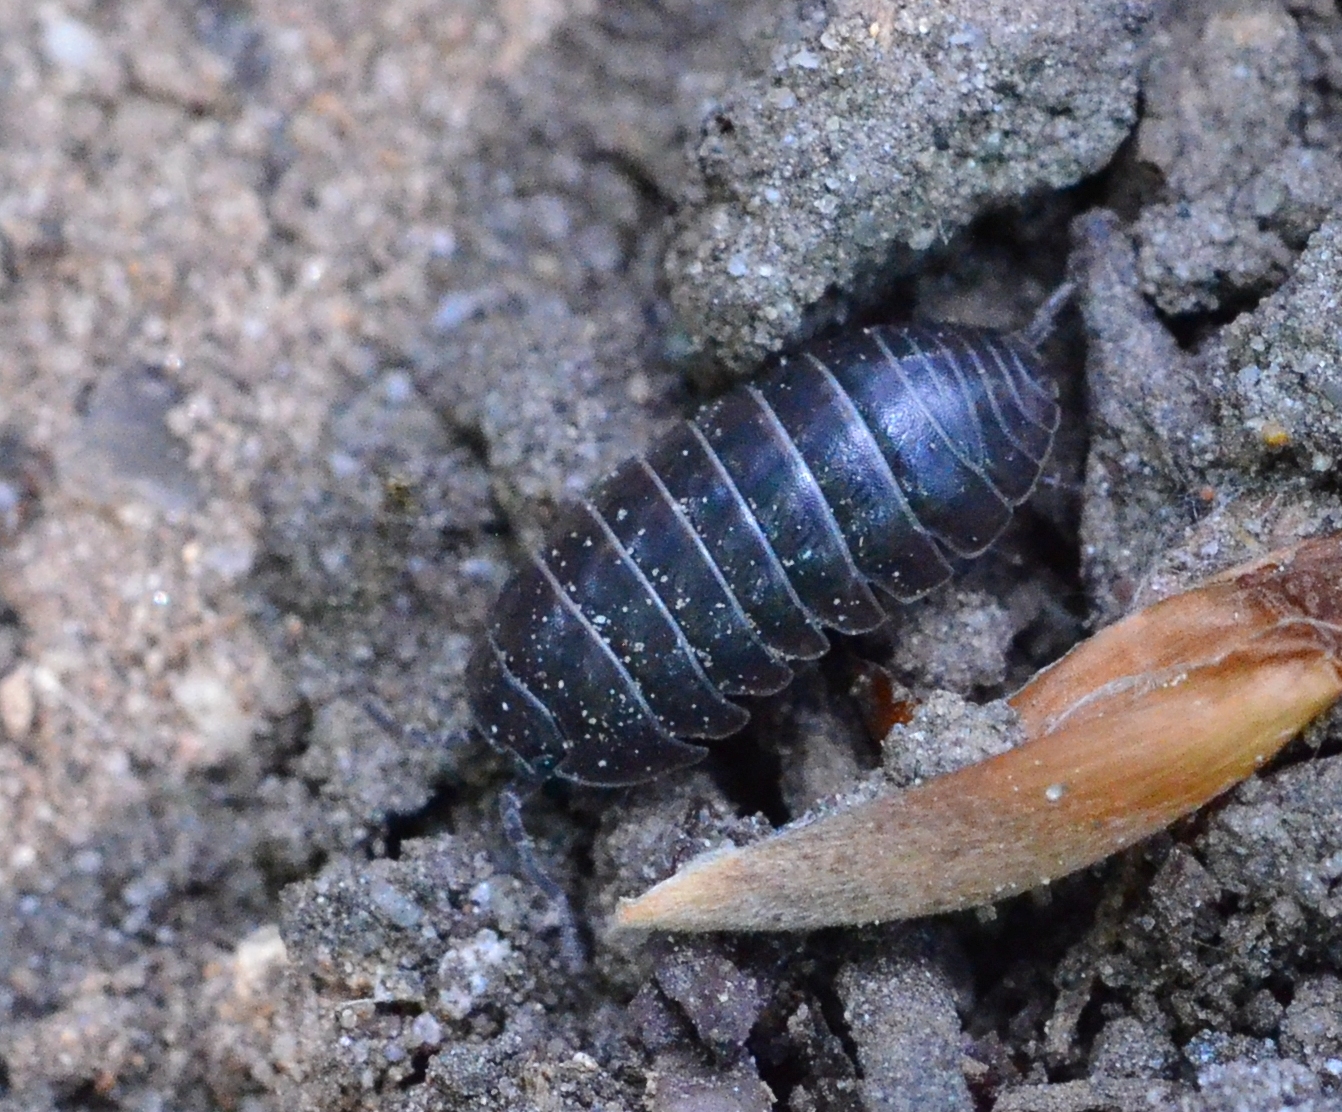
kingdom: Animalia
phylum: Arthropoda
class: Malacostraca
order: Isopoda
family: Armadillidiidae
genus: Armadillidium
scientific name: Armadillidium vulgare
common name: Common pill woodlouse
